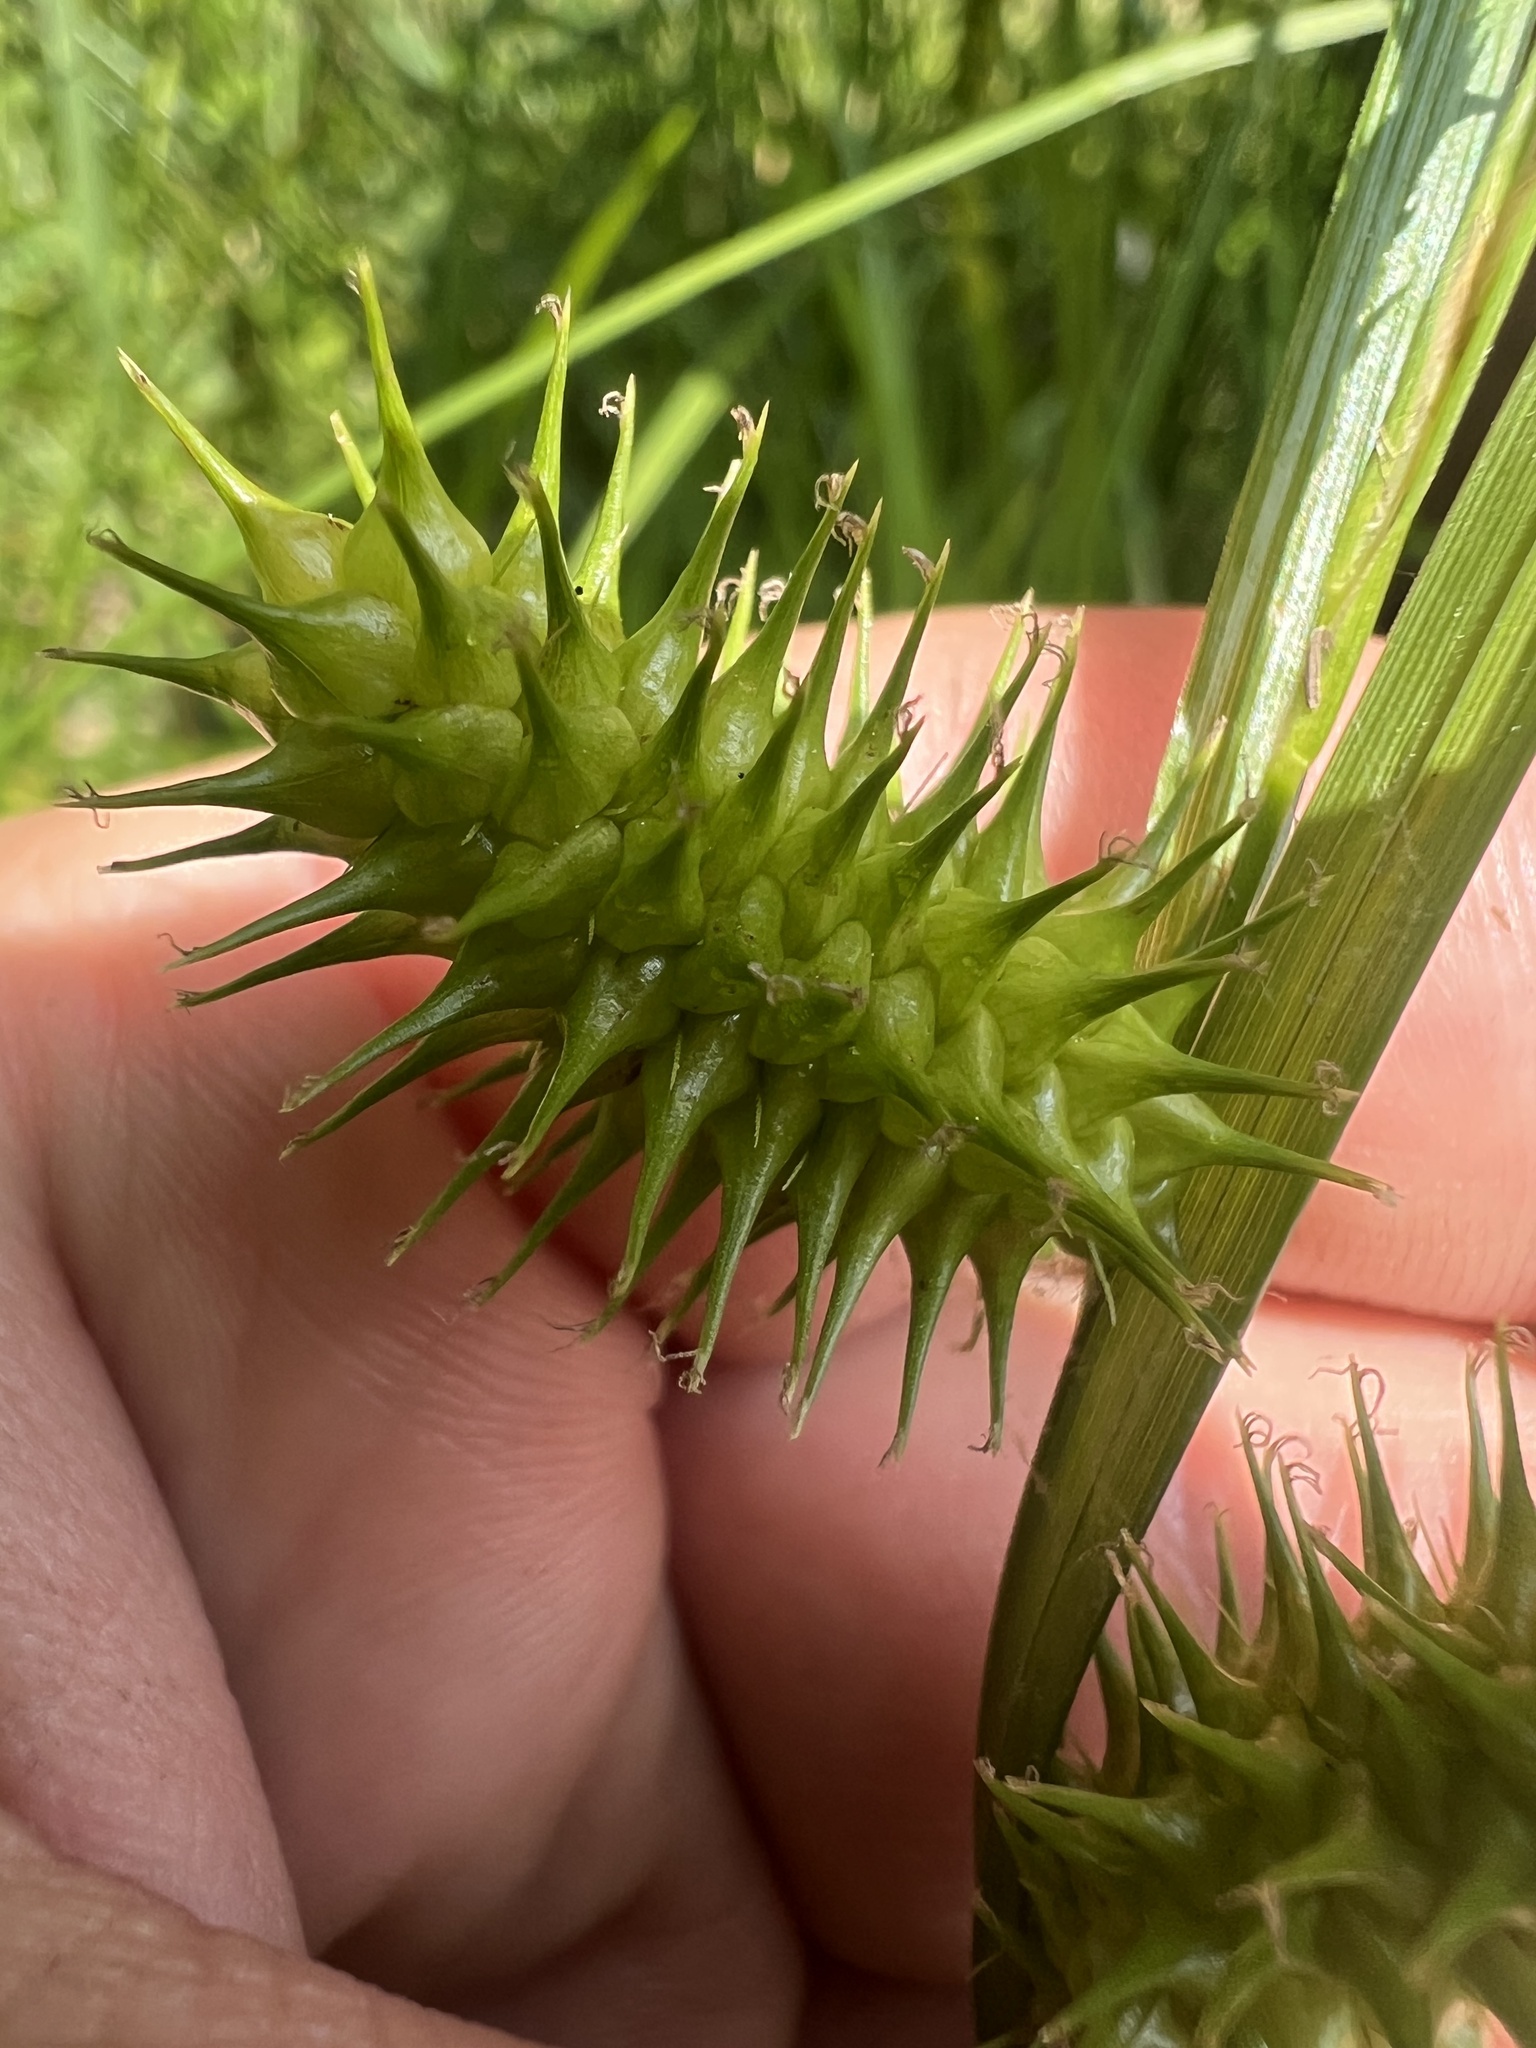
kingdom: Plantae
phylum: Tracheophyta
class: Liliopsida
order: Poales
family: Cyperaceae
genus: Carex
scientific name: Carex lurida
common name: Sallow sedge
